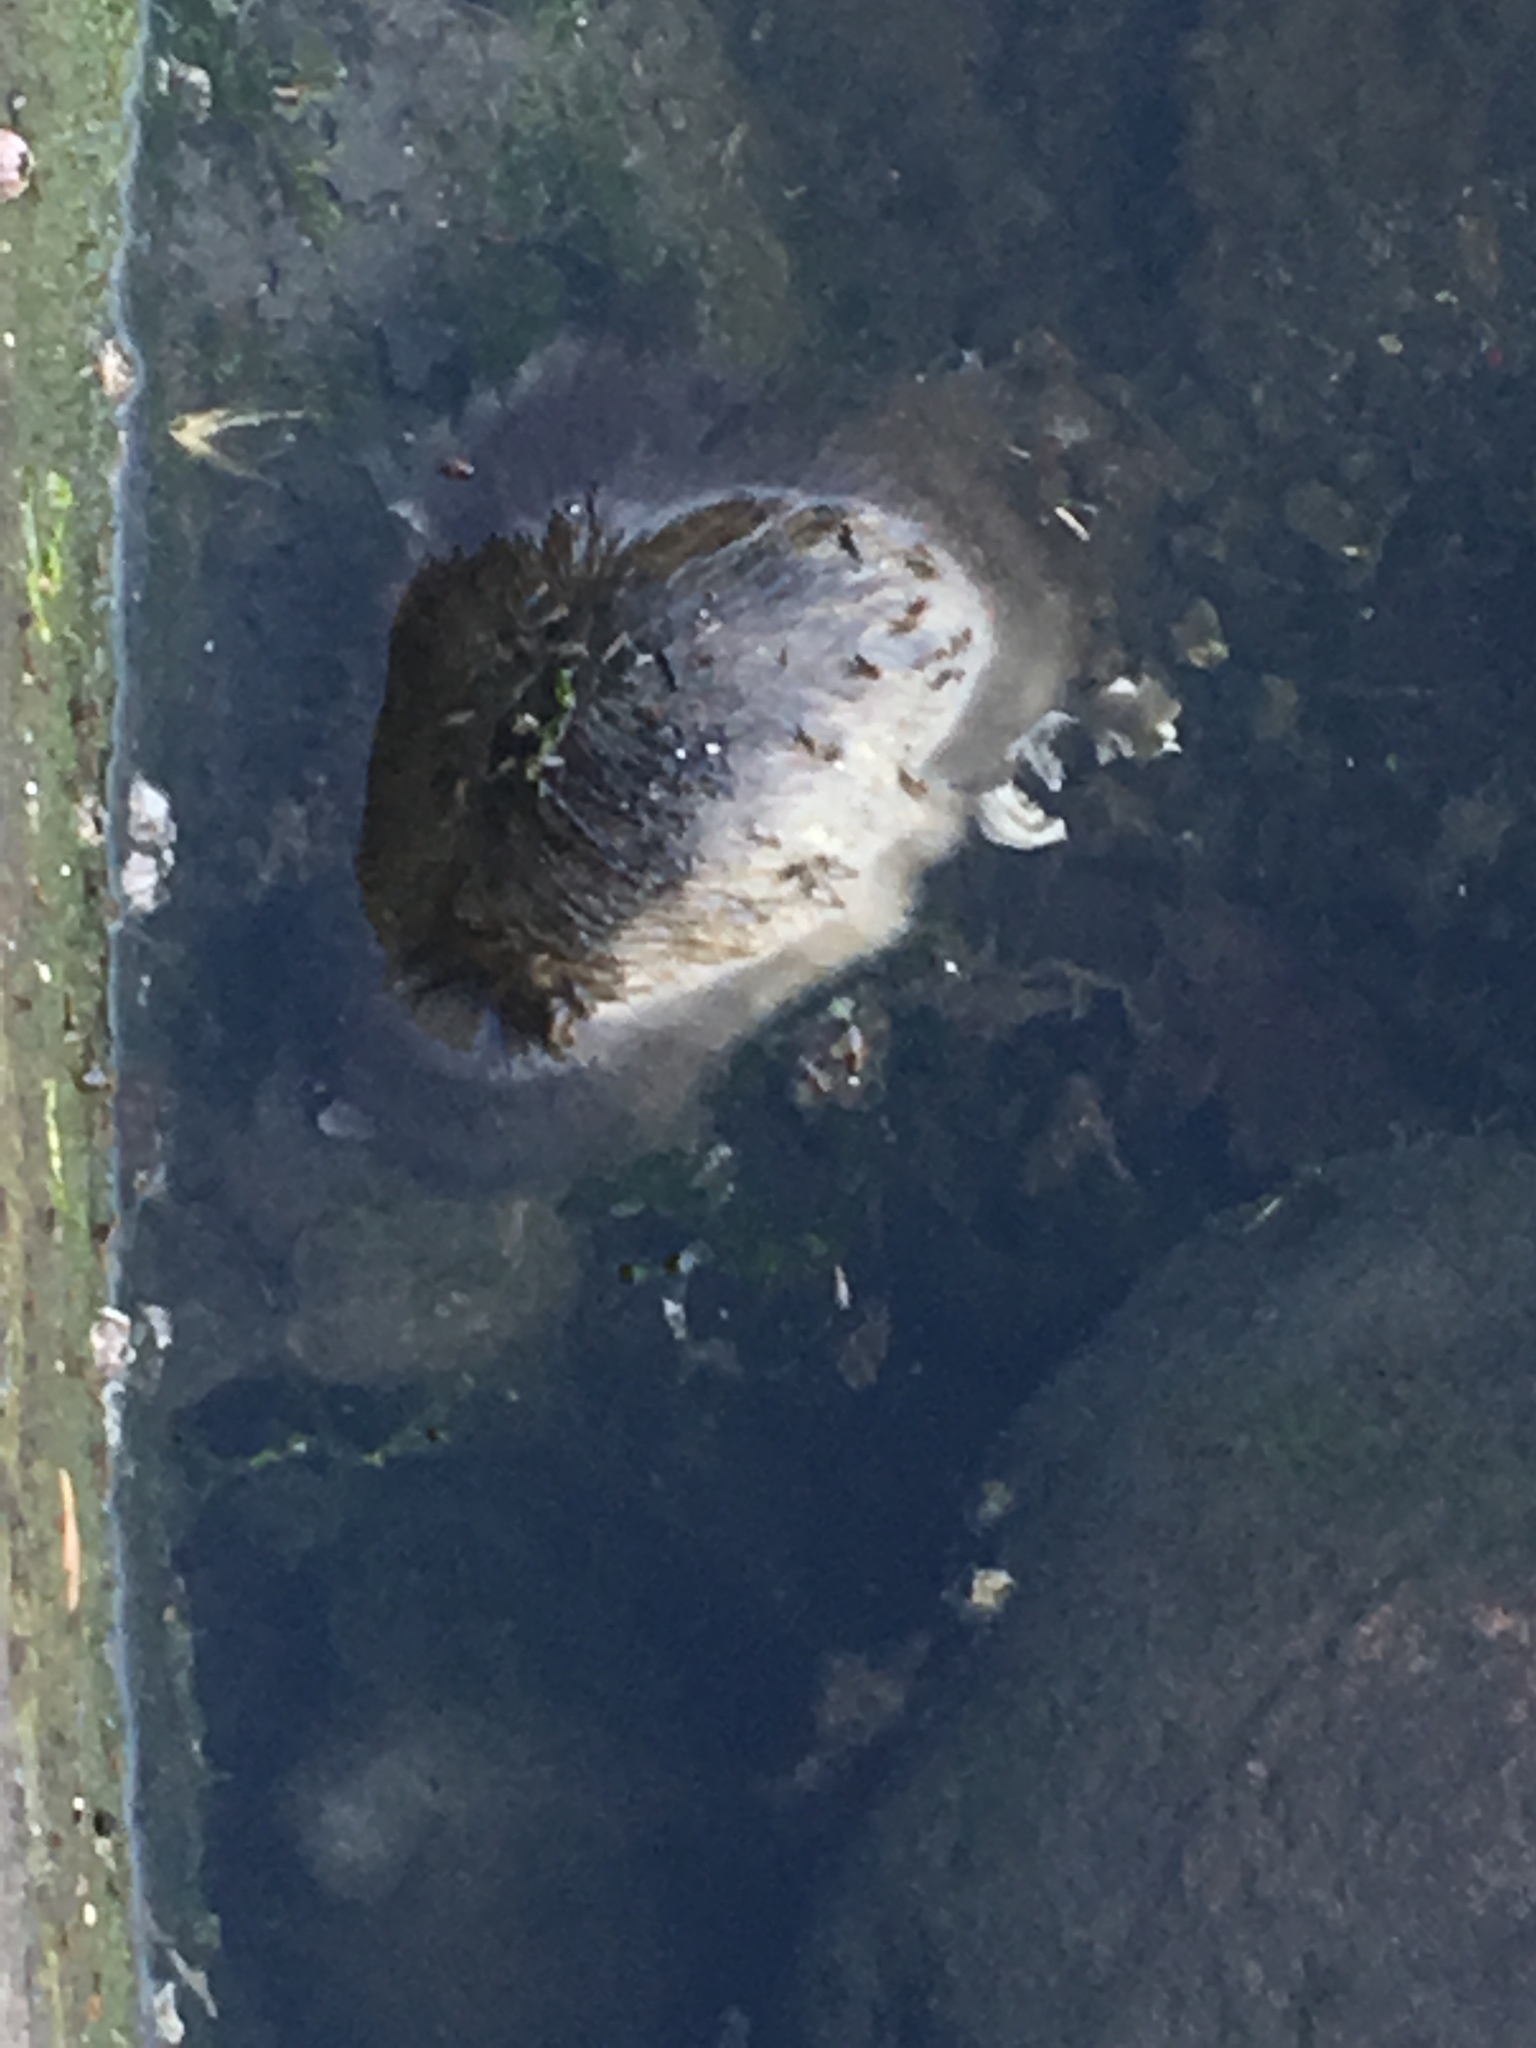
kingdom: Animalia
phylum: Chordata
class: Mammalia
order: Rodentia
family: Muridae
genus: Rattus
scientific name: Rattus norvegicus
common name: Brown rat
